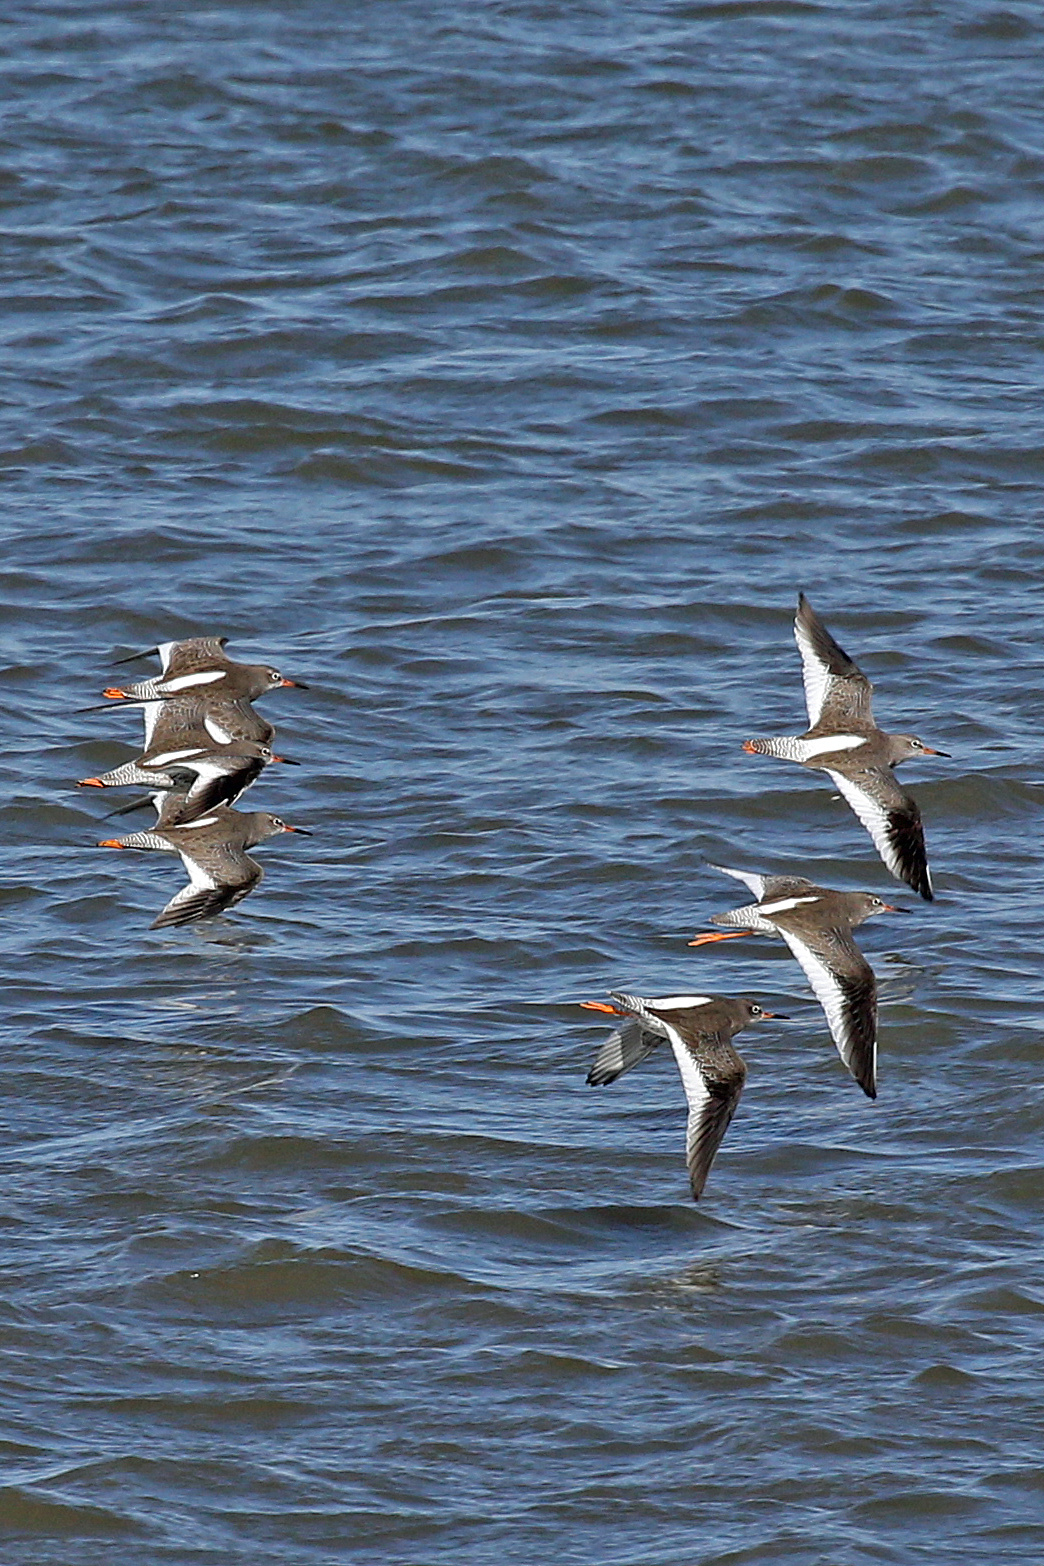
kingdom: Animalia
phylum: Chordata
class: Aves
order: Charadriiformes
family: Scolopacidae
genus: Tringa
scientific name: Tringa totanus
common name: Common redshank
